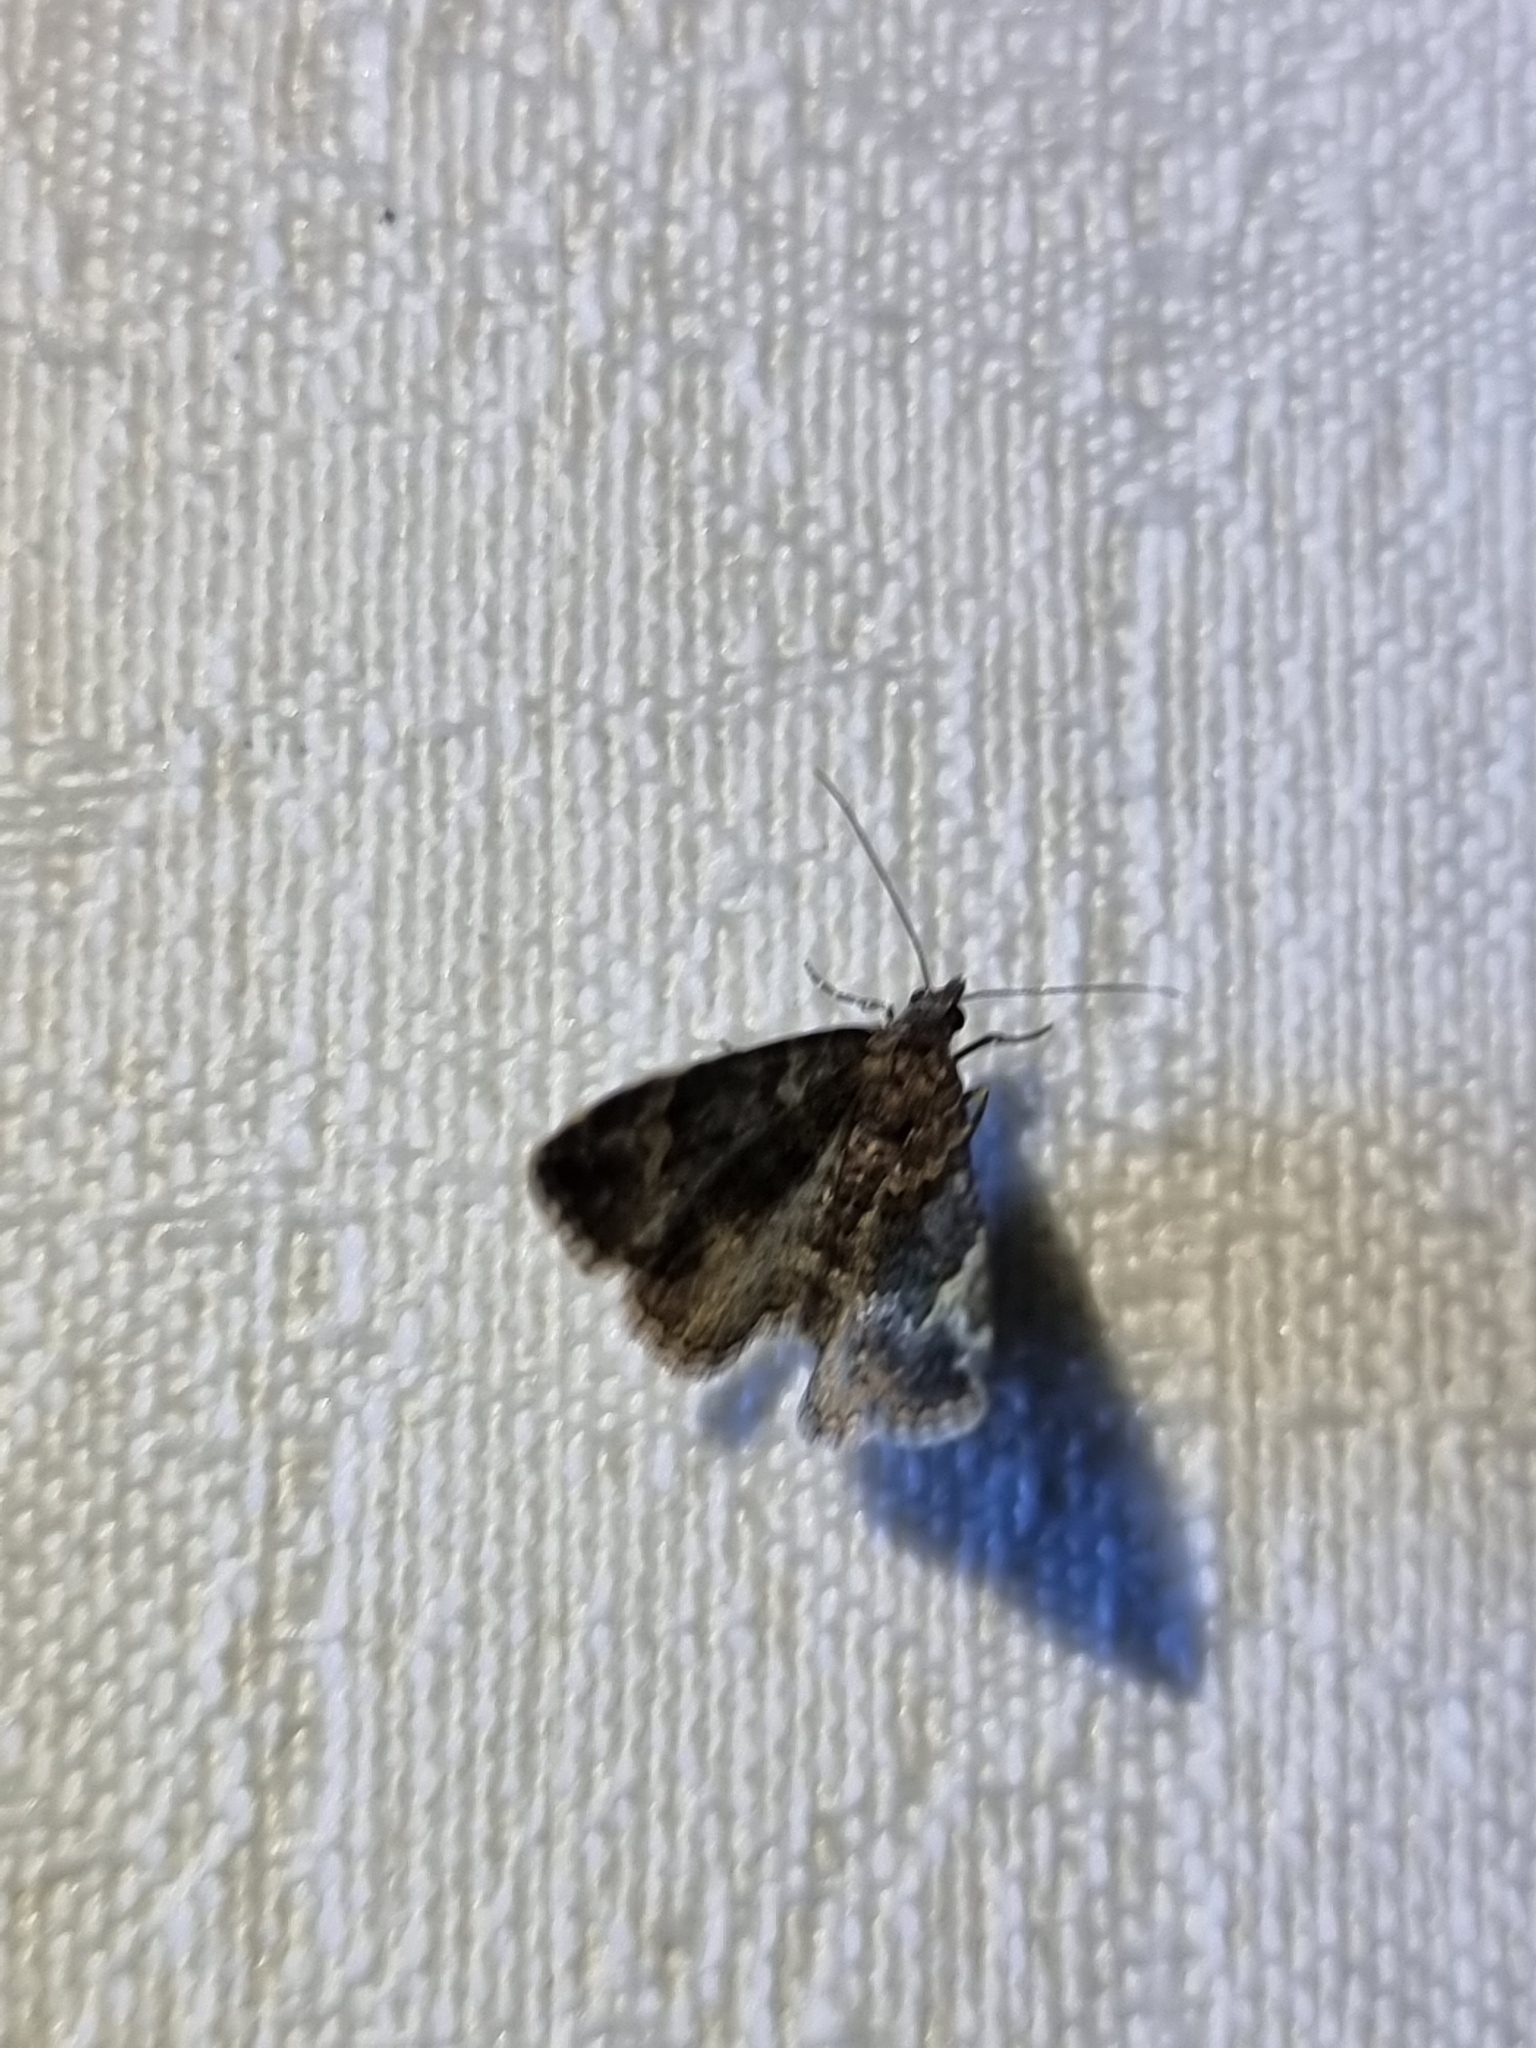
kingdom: Animalia
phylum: Arthropoda
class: Insecta
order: Lepidoptera
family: Geometridae
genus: Epyaxa
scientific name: Epyaxa sodaliata
